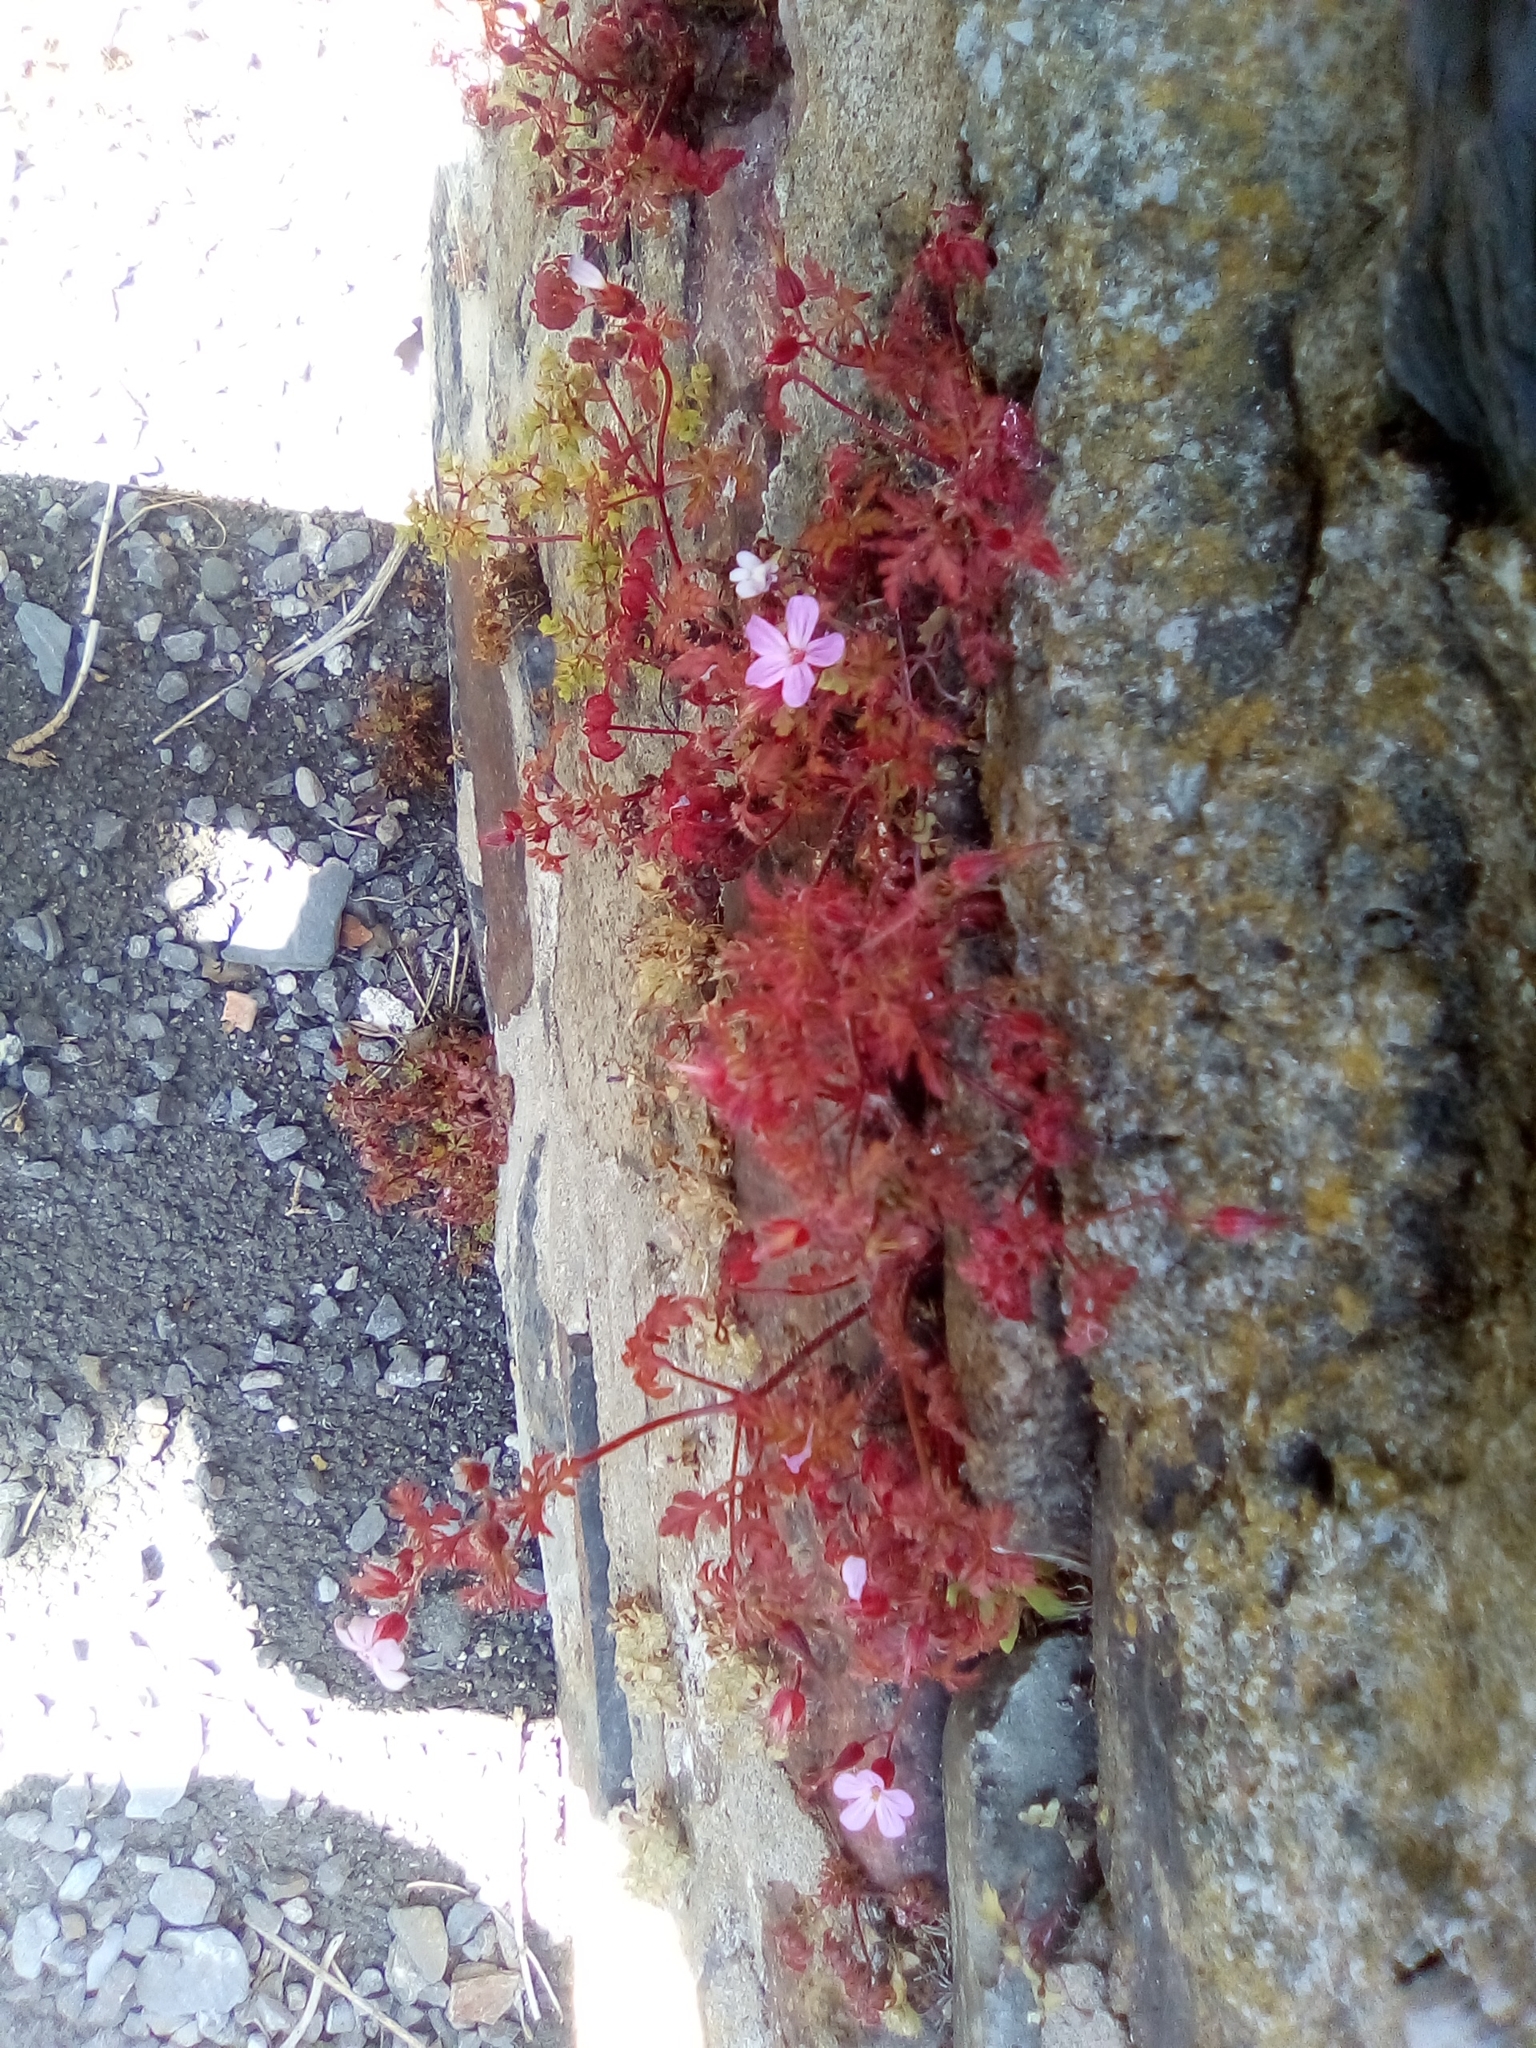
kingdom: Plantae
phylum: Tracheophyta
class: Magnoliopsida
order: Geraniales
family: Geraniaceae
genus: Geranium
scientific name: Geranium robertianum
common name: Herb-robert
